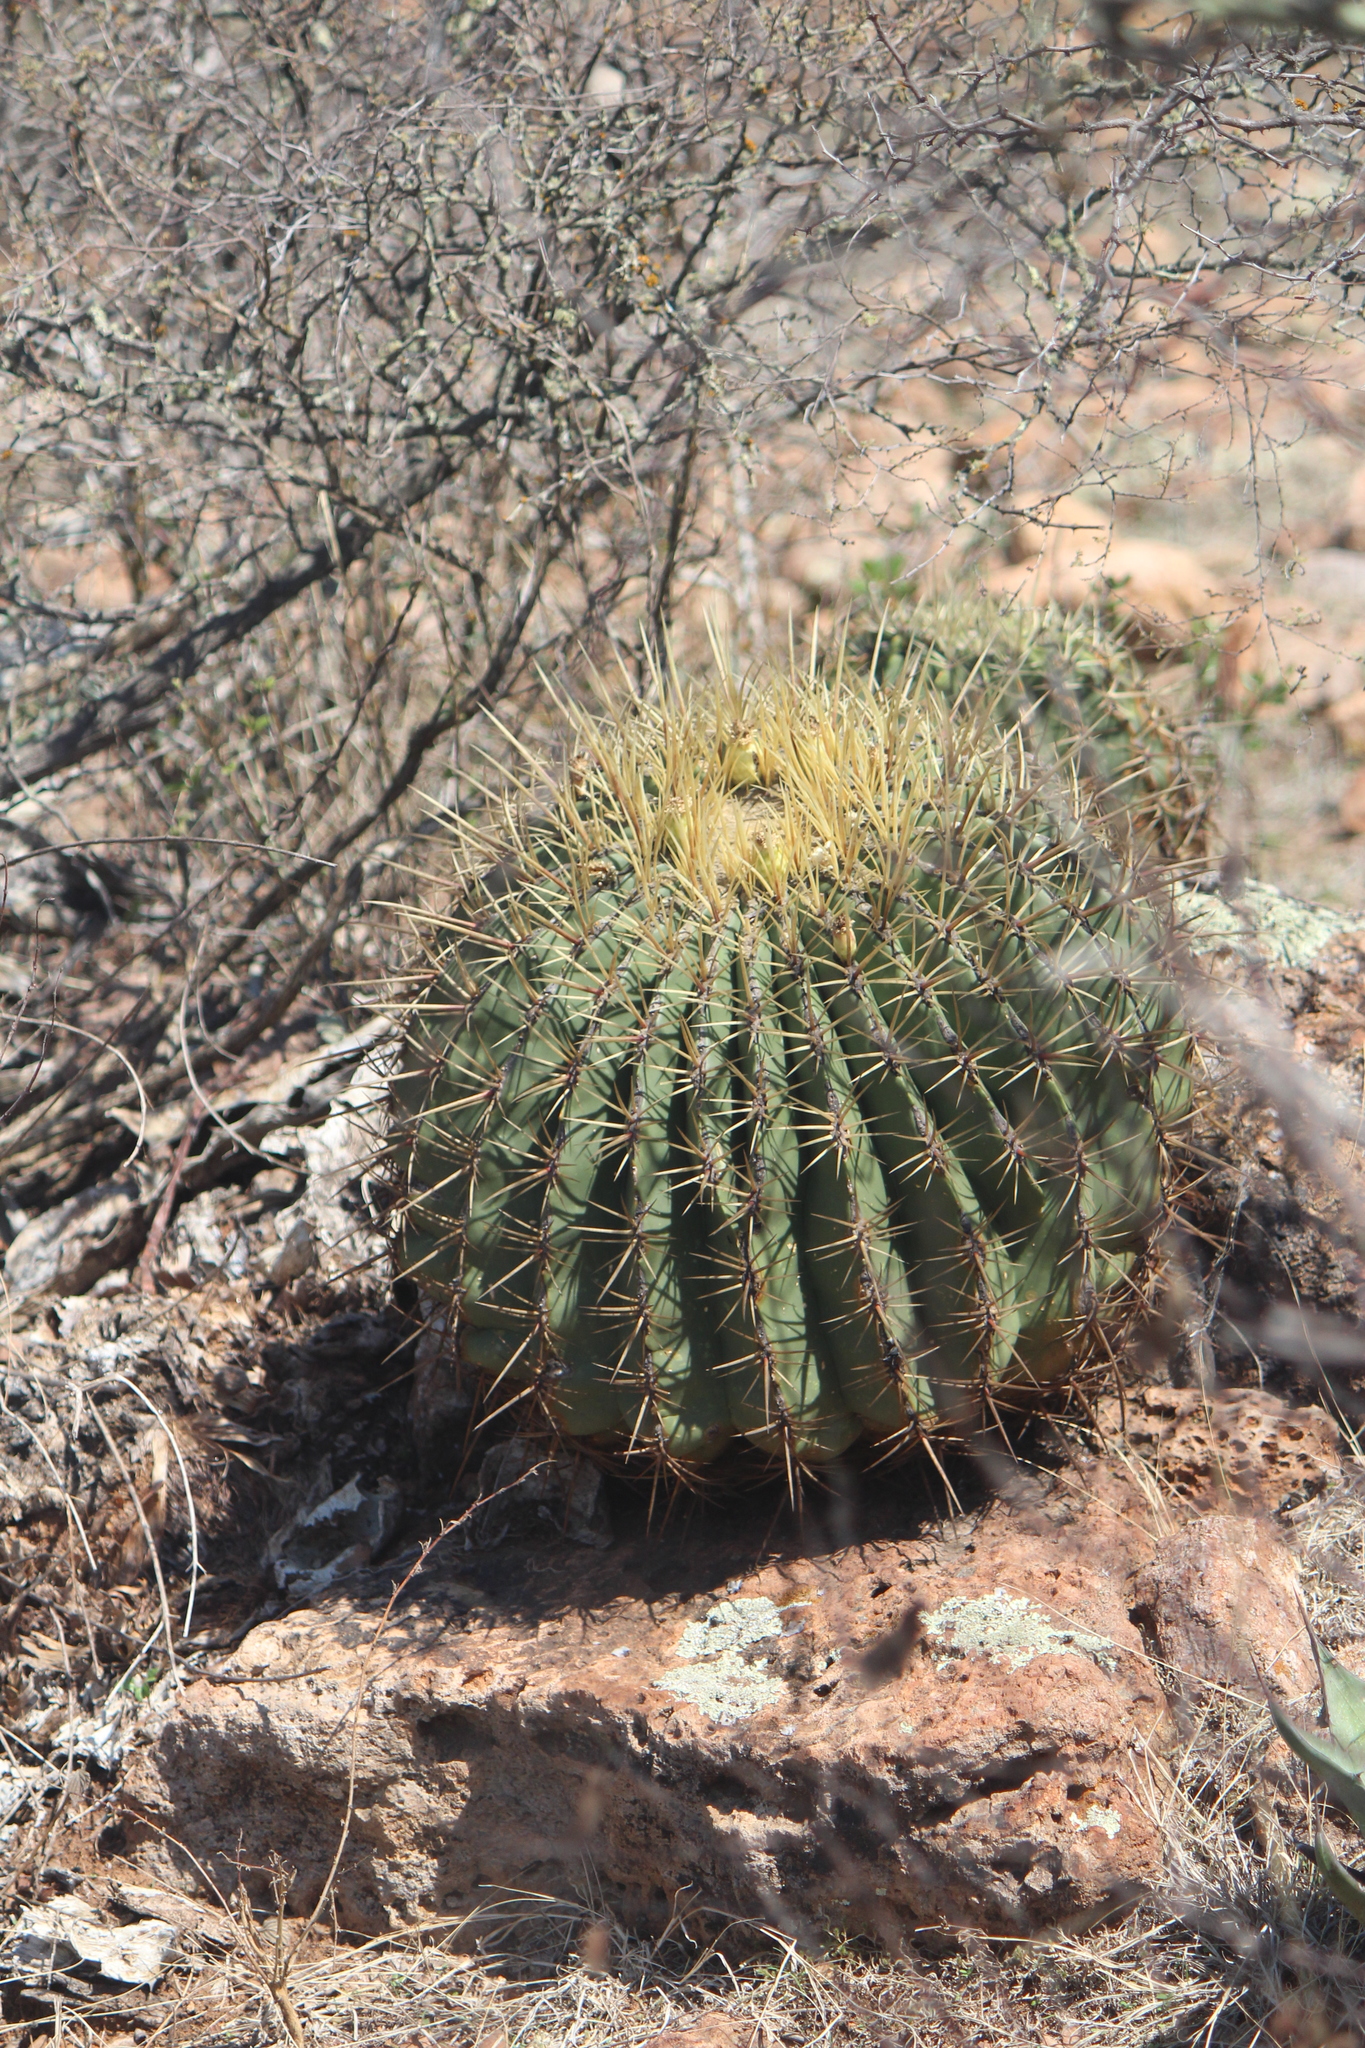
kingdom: Plantae
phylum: Tracheophyta
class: Magnoliopsida
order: Caryophyllales
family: Cactaceae
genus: Bisnaga
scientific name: Bisnaga histrix
